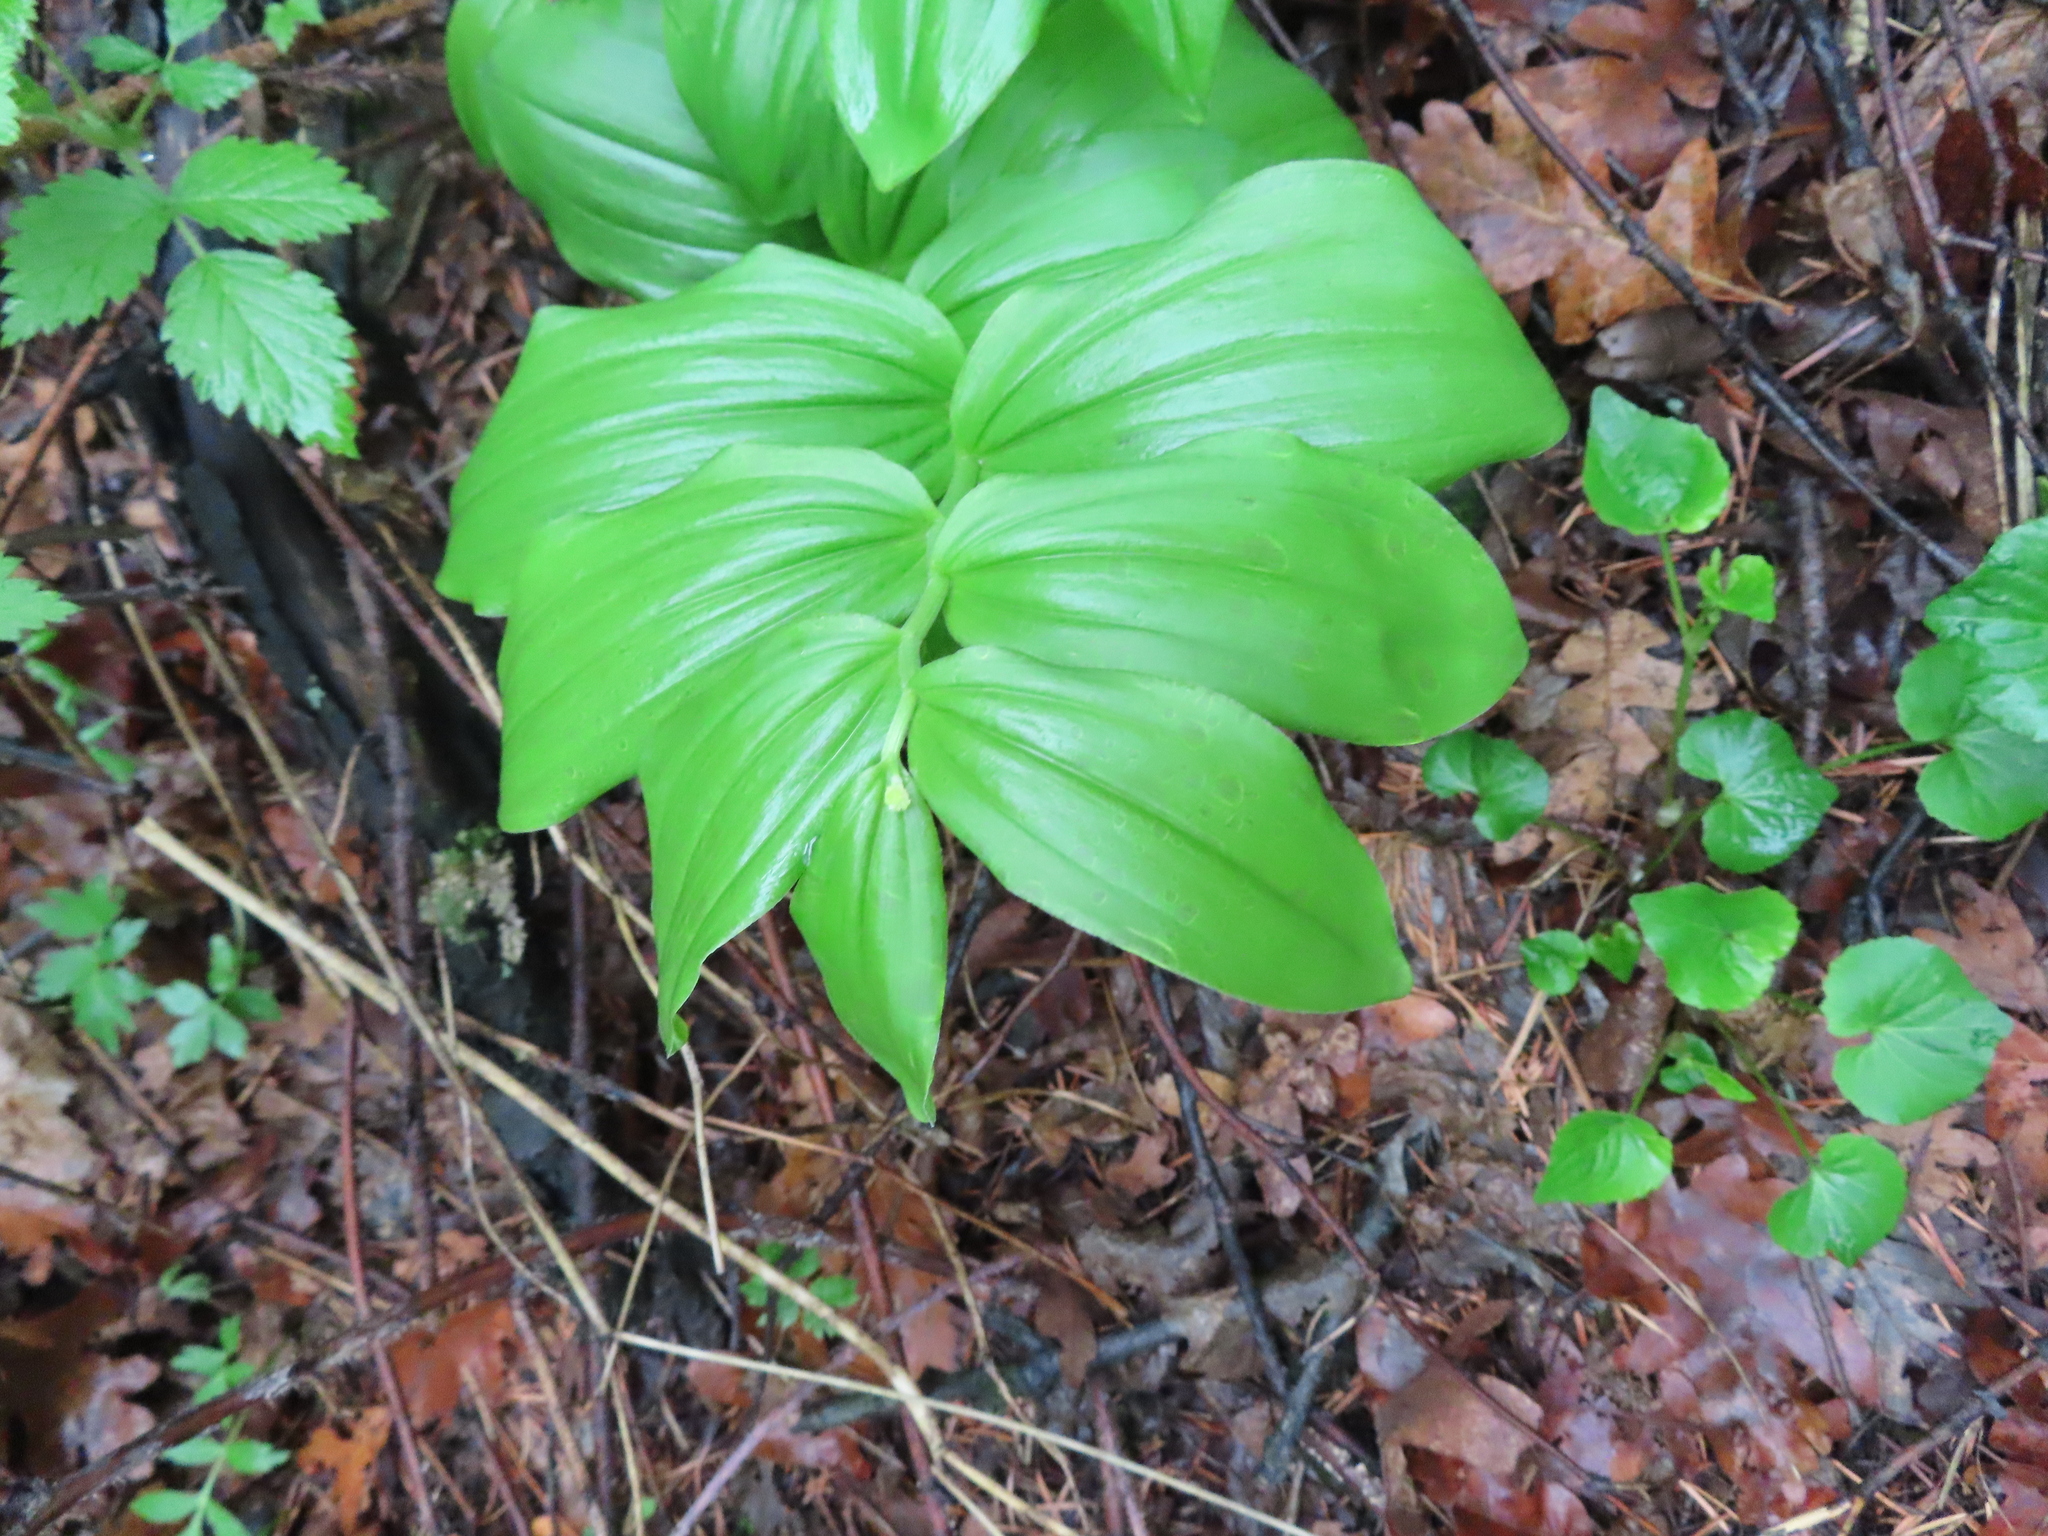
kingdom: Plantae
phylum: Tracheophyta
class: Liliopsida
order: Asparagales
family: Asparagaceae
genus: Maianthemum
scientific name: Maianthemum racemosum
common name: False spikenard
